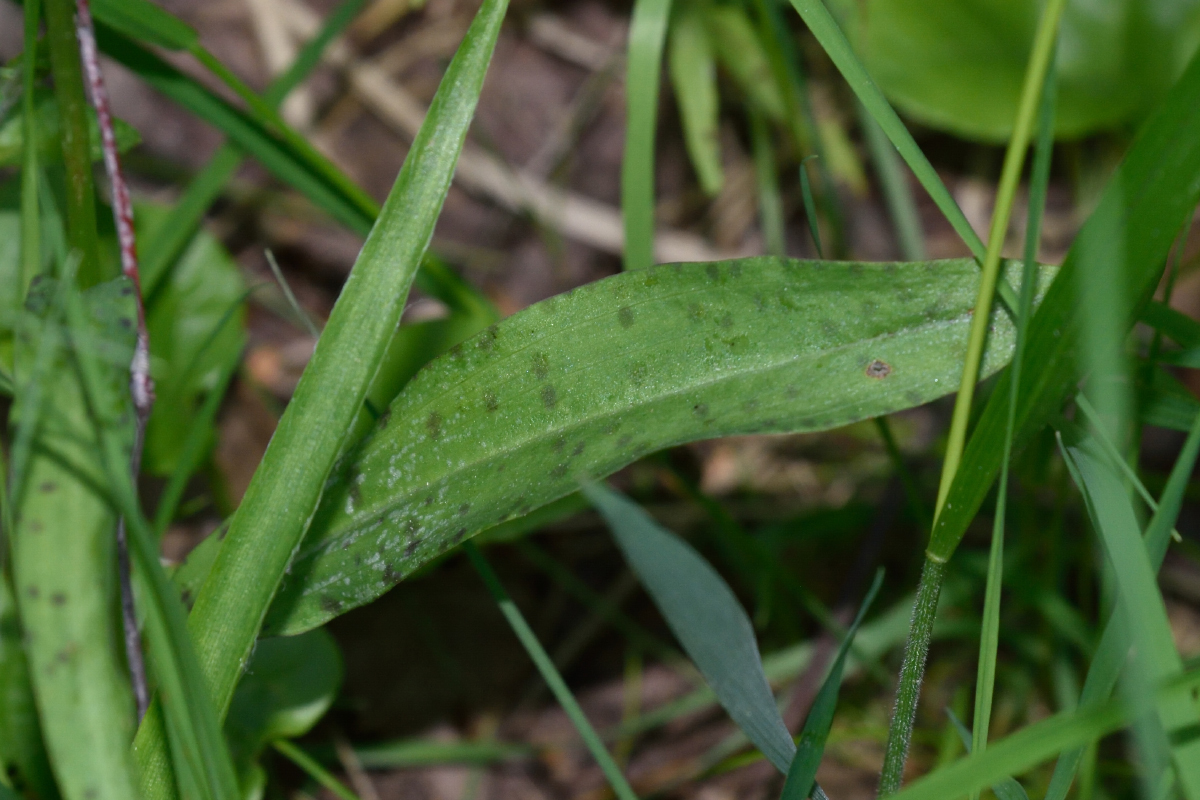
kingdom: Plantae
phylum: Tracheophyta
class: Liliopsida
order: Asparagales
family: Orchidaceae
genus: Dactylorhiza
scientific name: Dactylorhiza maculata
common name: Heath spotted-orchid
